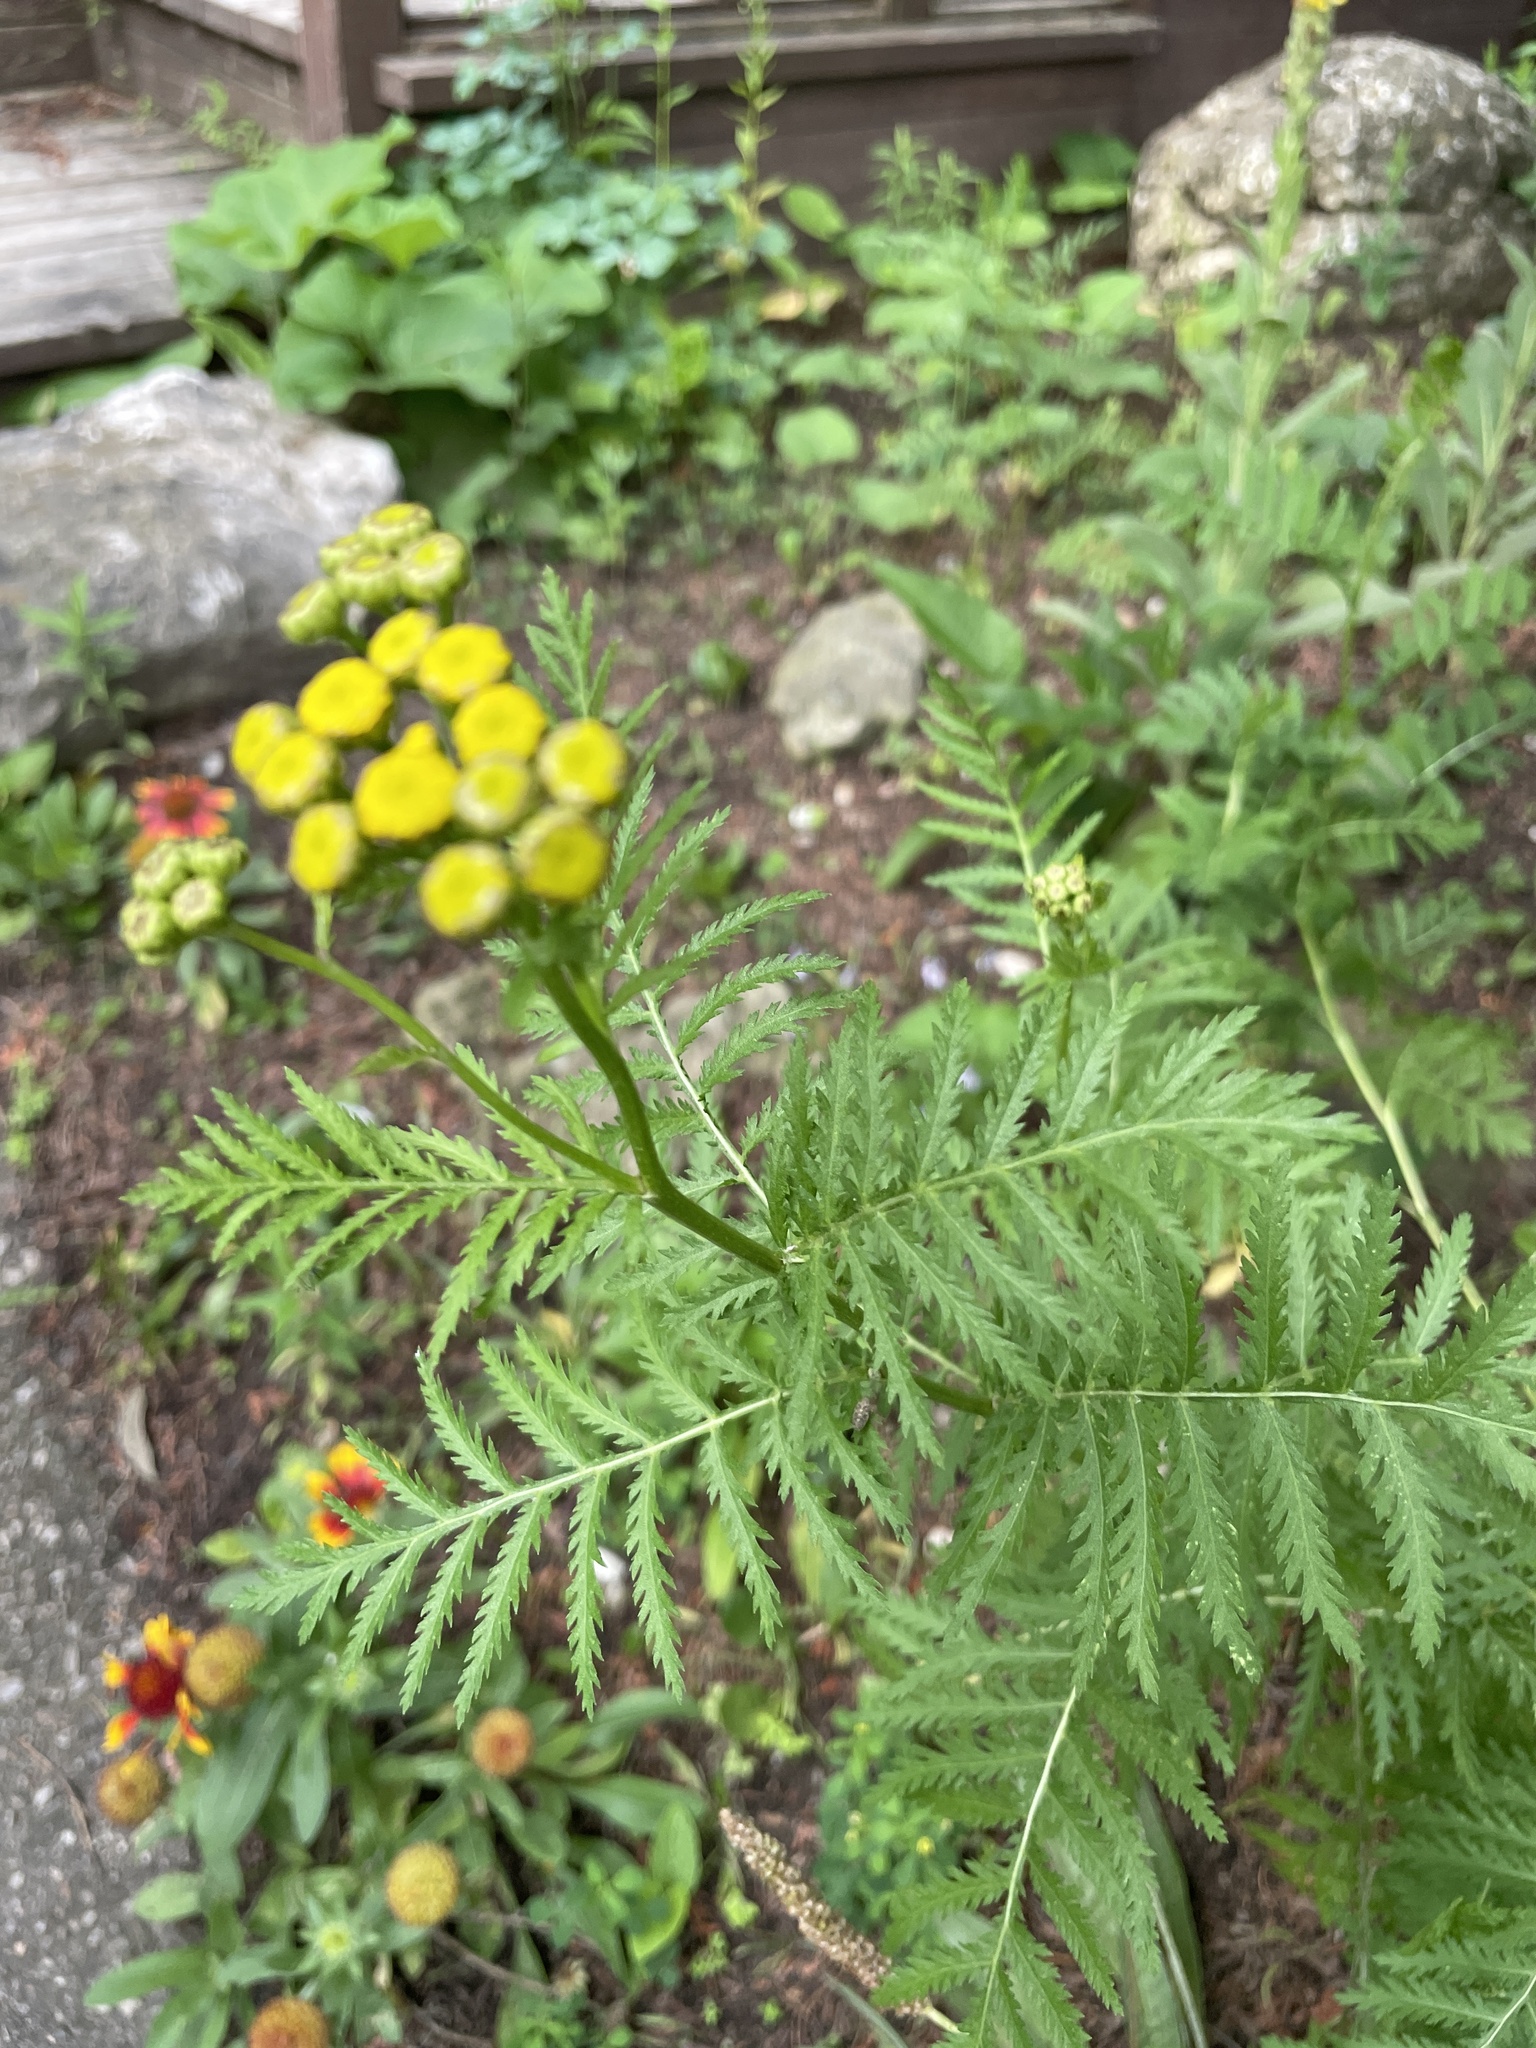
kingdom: Plantae
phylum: Tracheophyta
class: Magnoliopsida
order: Asterales
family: Asteraceae
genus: Tanacetum
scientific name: Tanacetum vulgare
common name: Common tansy
